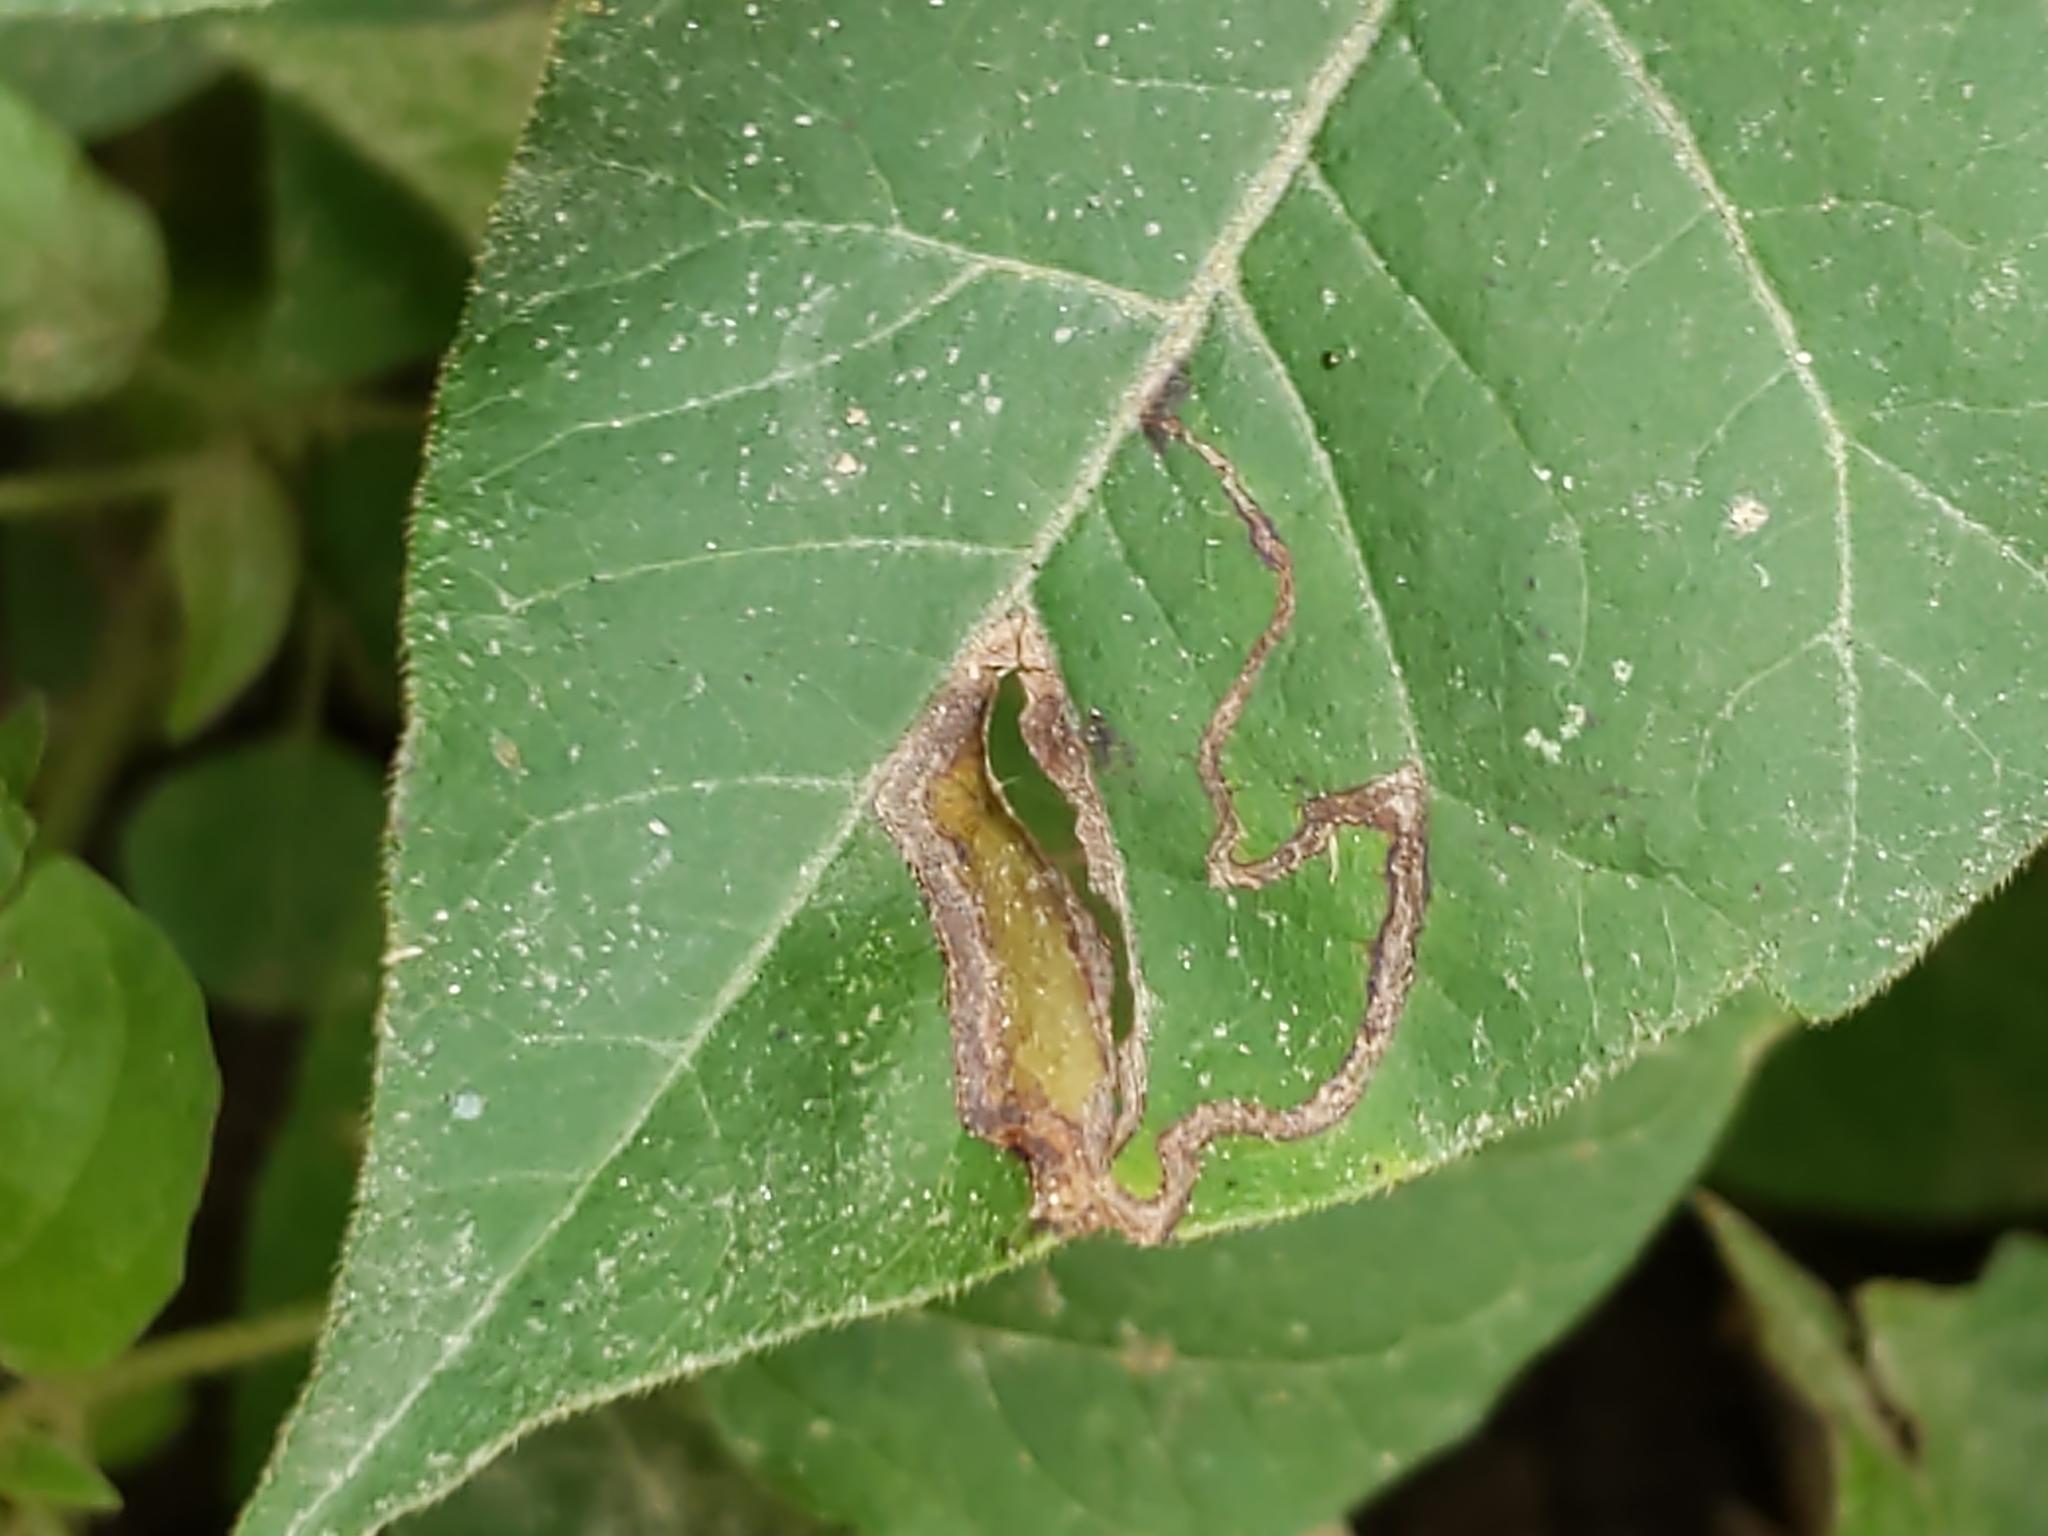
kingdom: Animalia
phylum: Arthropoda
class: Insecta
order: Lepidoptera
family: Gracillariidae
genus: Caloptilia
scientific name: Caloptilia rhoifoliella
